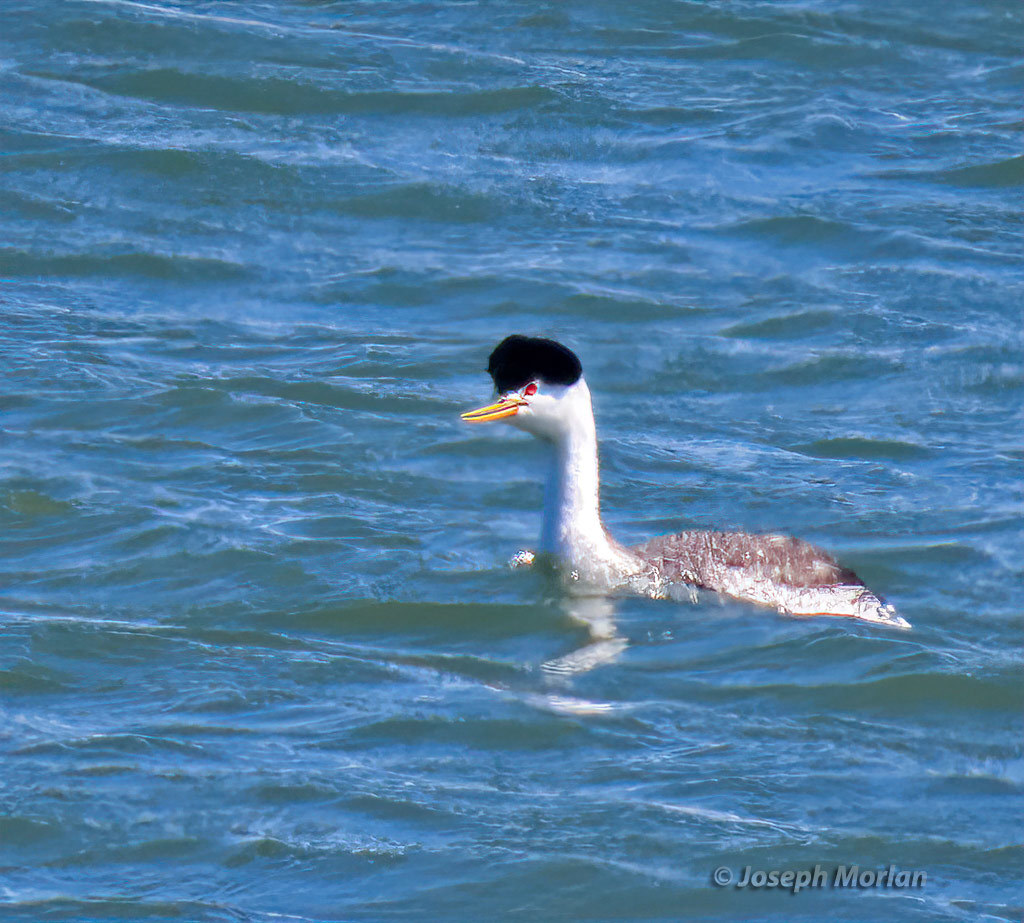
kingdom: Animalia
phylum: Chordata
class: Aves
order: Podicipediformes
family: Podicipedidae
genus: Aechmophorus
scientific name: Aechmophorus clarkii
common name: Clark's grebe
